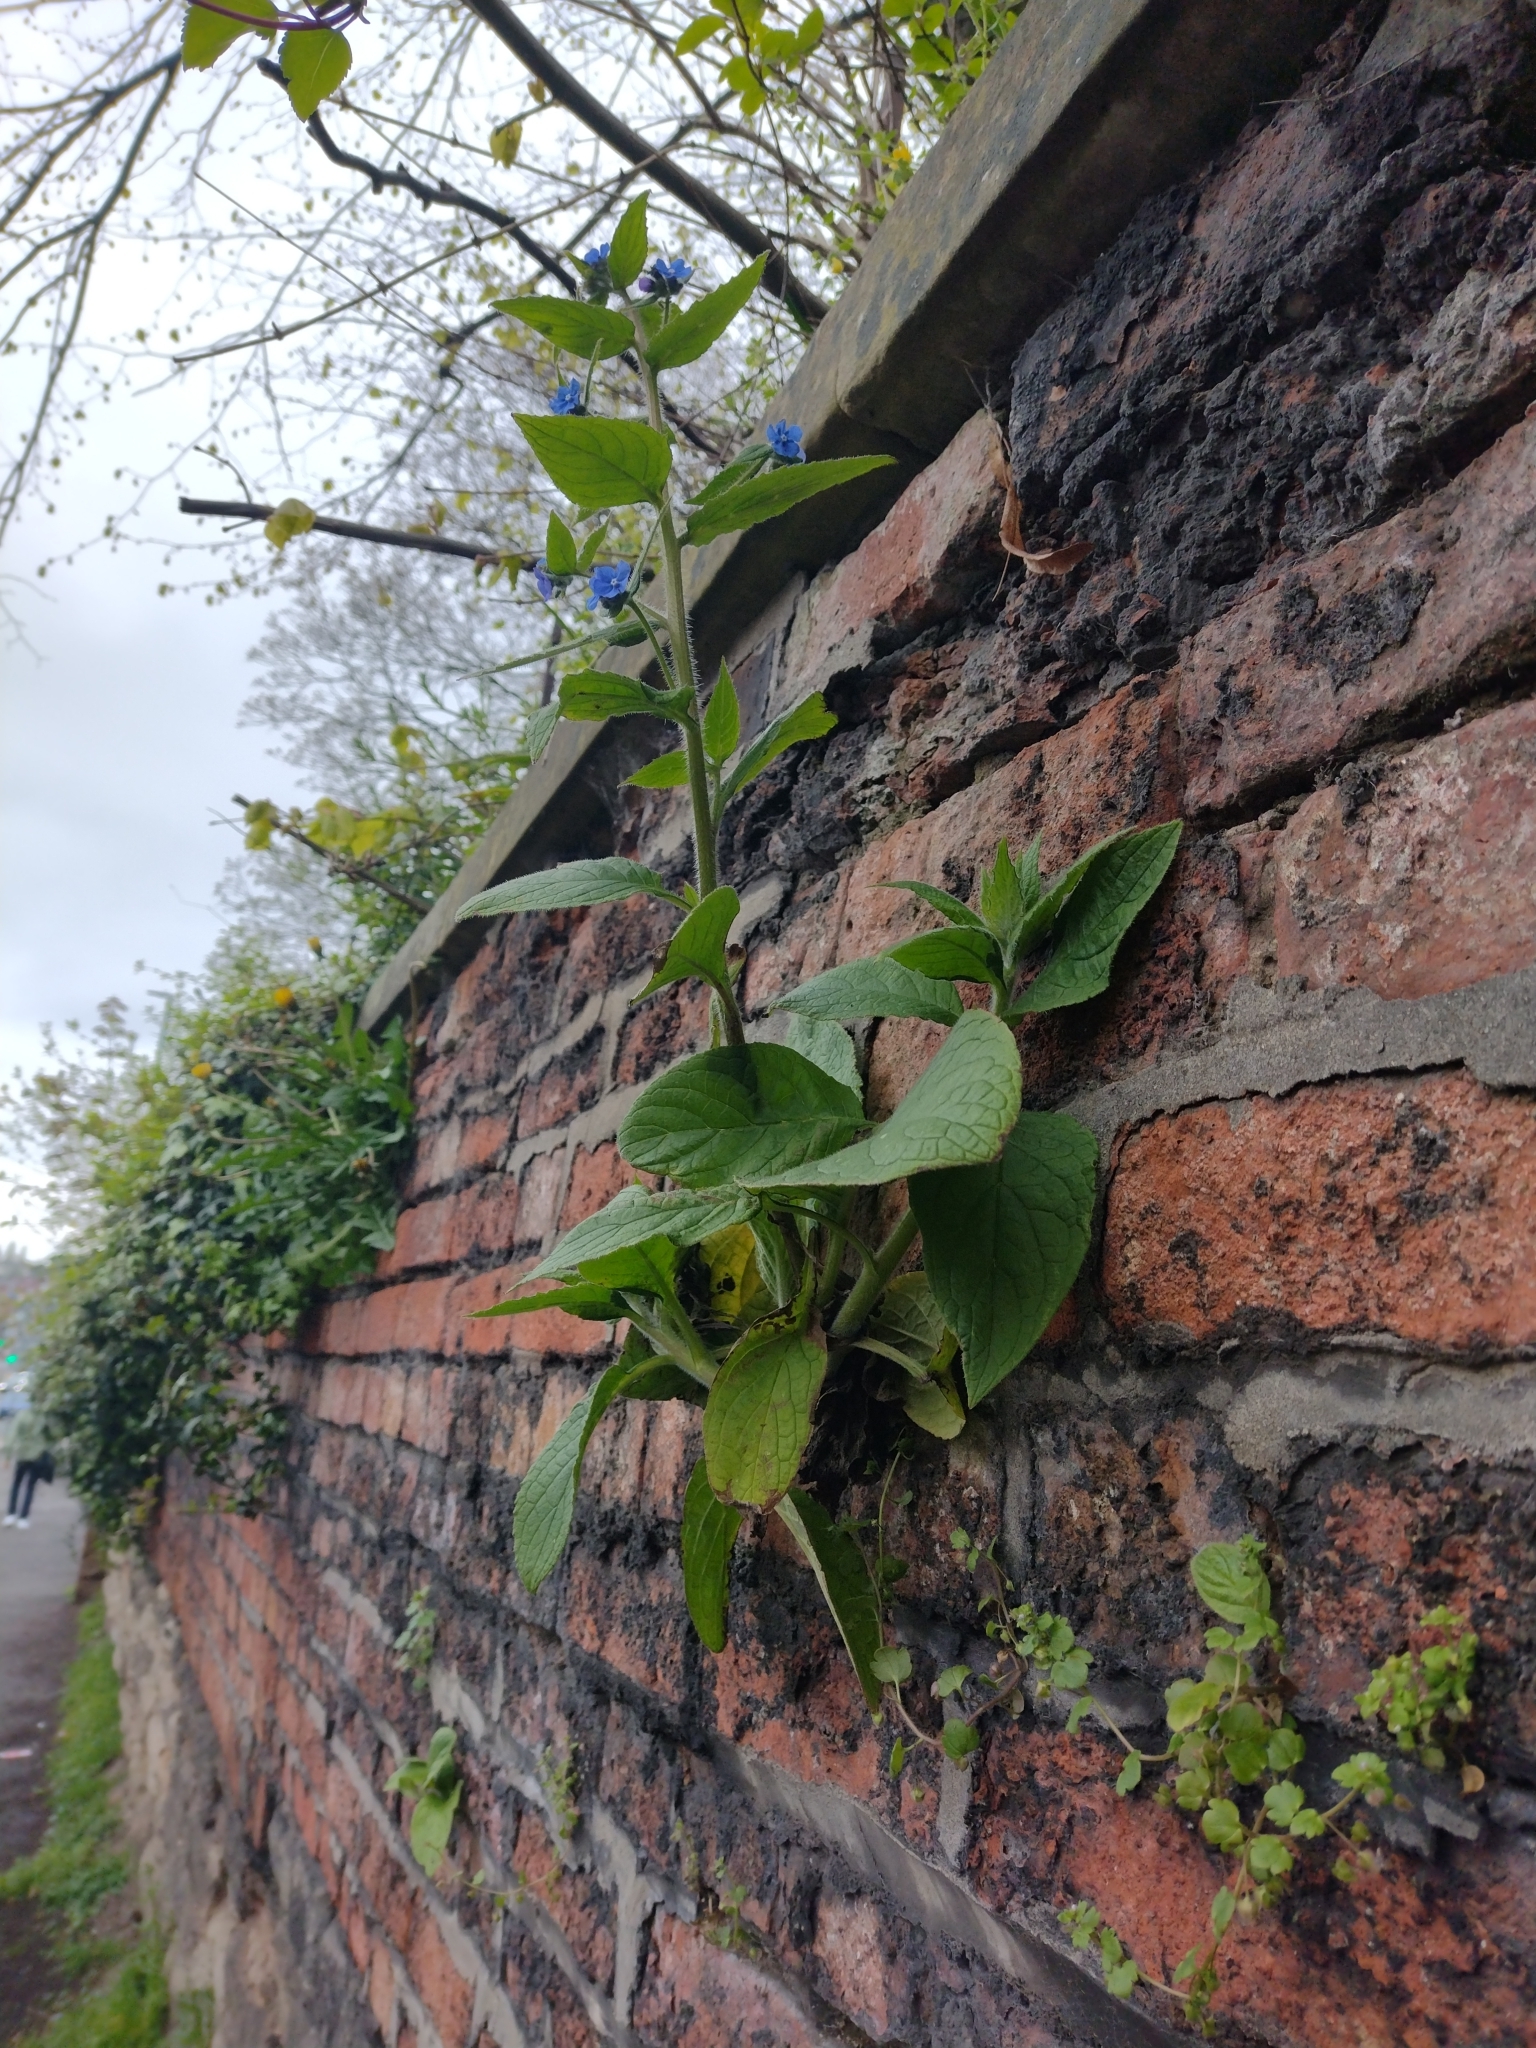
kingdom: Plantae
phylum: Tracheophyta
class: Magnoliopsida
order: Boraginales
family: Boraginaceae
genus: Pentaglottis
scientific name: Pentaglottis sempervirens
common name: Green alkanet
